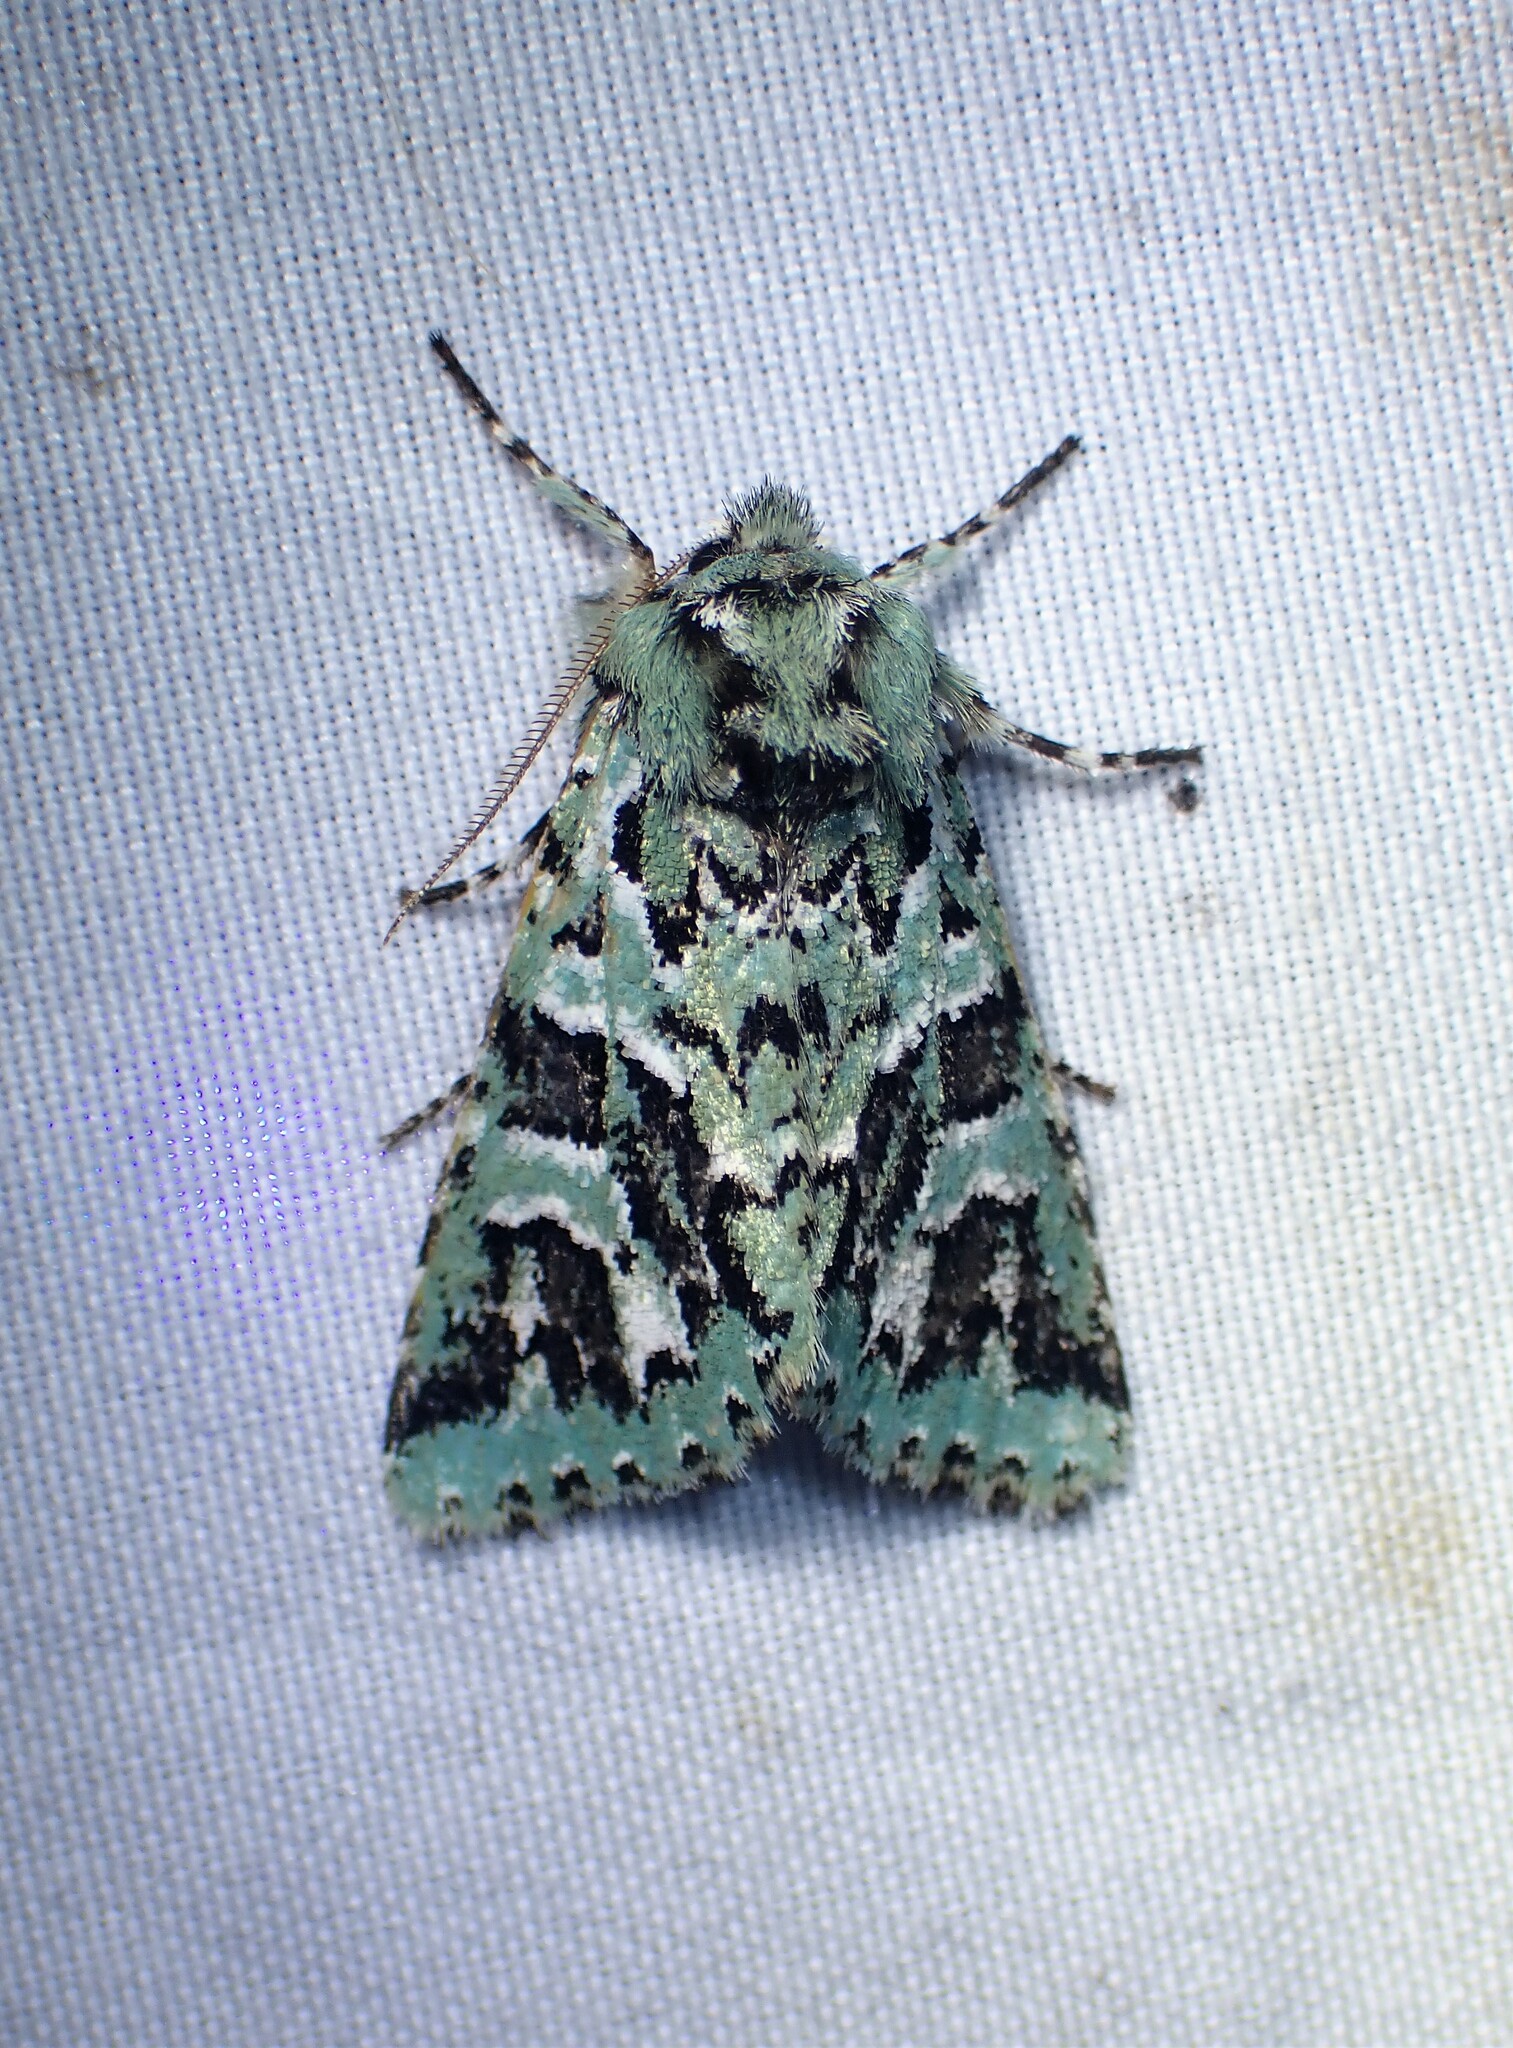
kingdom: Animalia
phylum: Arthropoda
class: Insecta
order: Lepidoptera
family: Noctuidae
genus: Feralia
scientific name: Feralia comstocki
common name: Comstock's sallow
